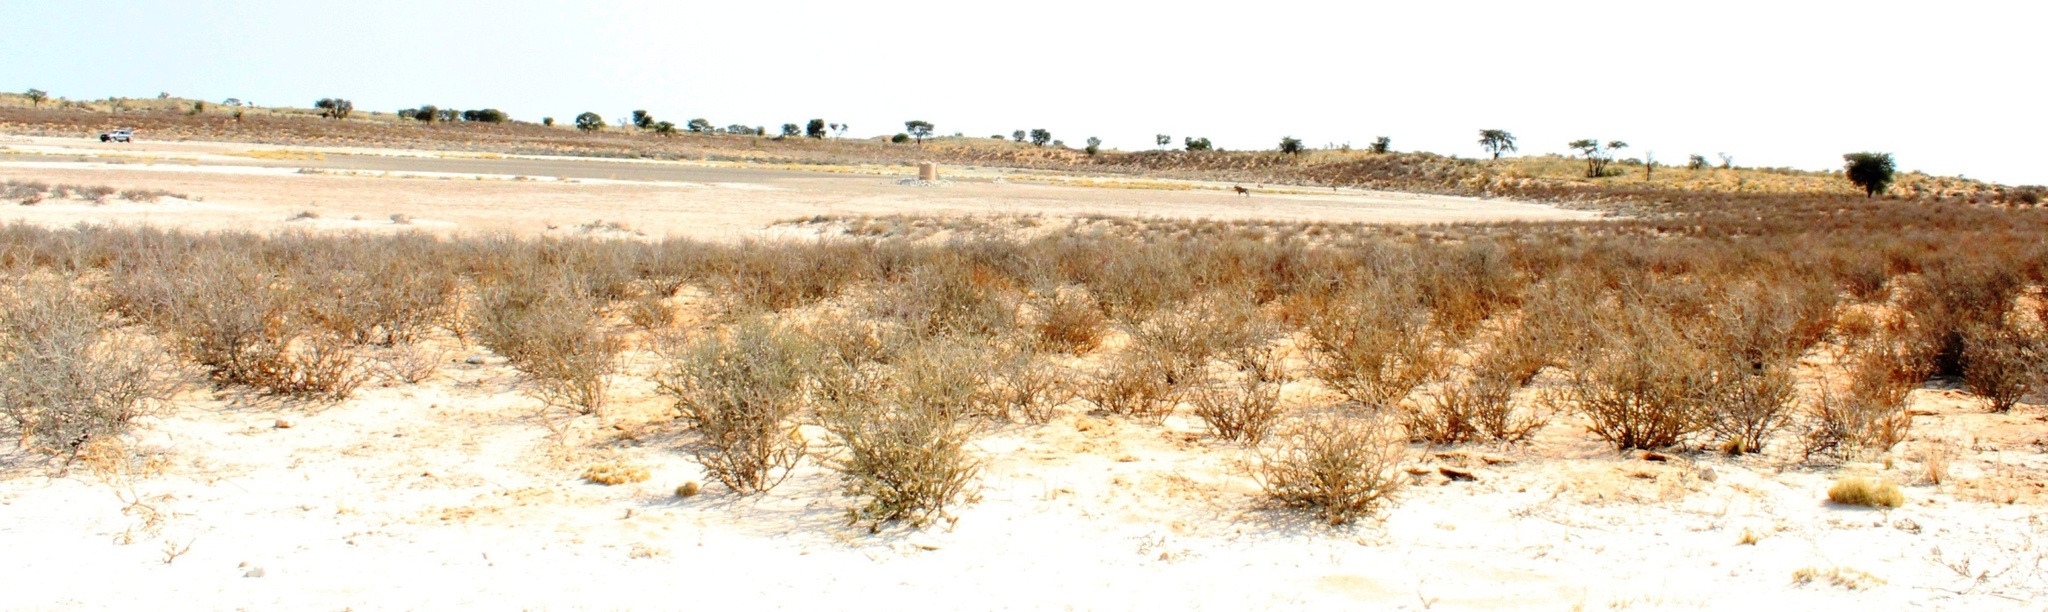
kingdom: Plantae
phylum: Tracheophyta
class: Magnoliopsida
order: Lamiales
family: Bignoniaceae
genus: Rhigozum
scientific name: Rhigozum trichotomum
